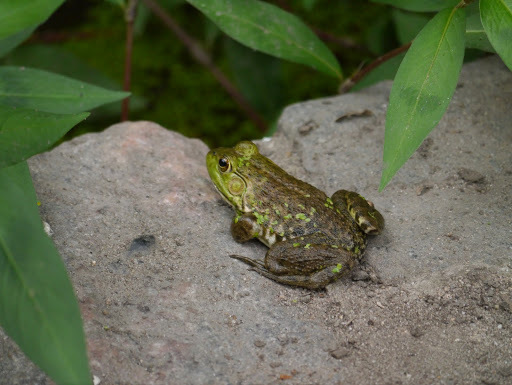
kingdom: Animalia
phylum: Chordata
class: Amphibia
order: Anura
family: Ranidae
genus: Lithobates
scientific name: Lithobates catesbeianus
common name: American bullfrog
